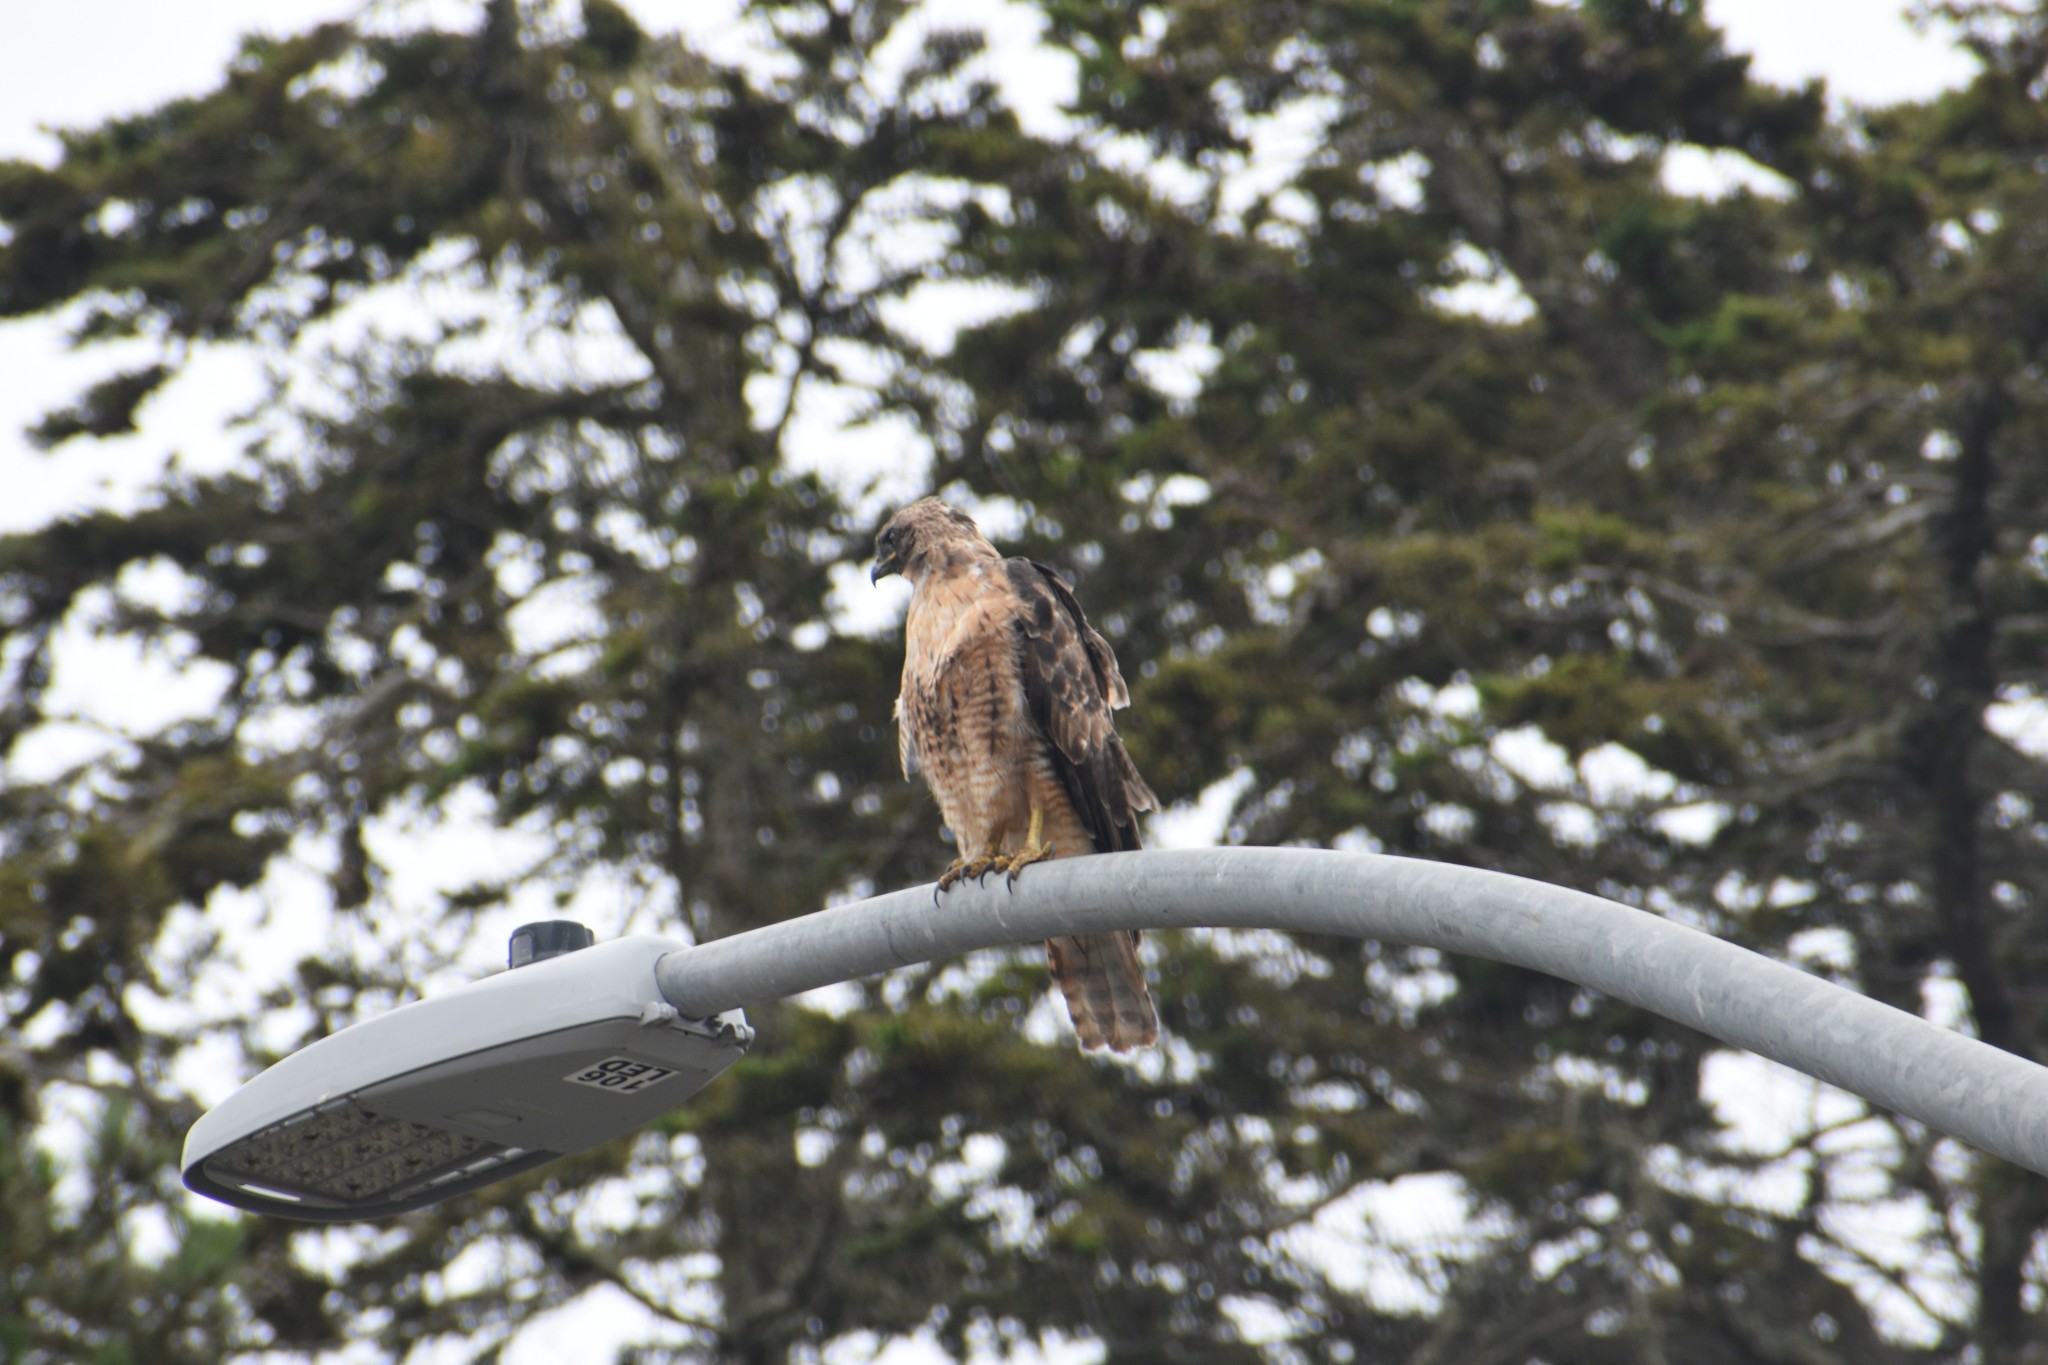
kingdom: Animalia
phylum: Chordata
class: Aves
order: Accipitriformes
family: Accipitridae
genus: Buteo
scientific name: Buteo jamaicensis
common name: Red-tailed hawk
